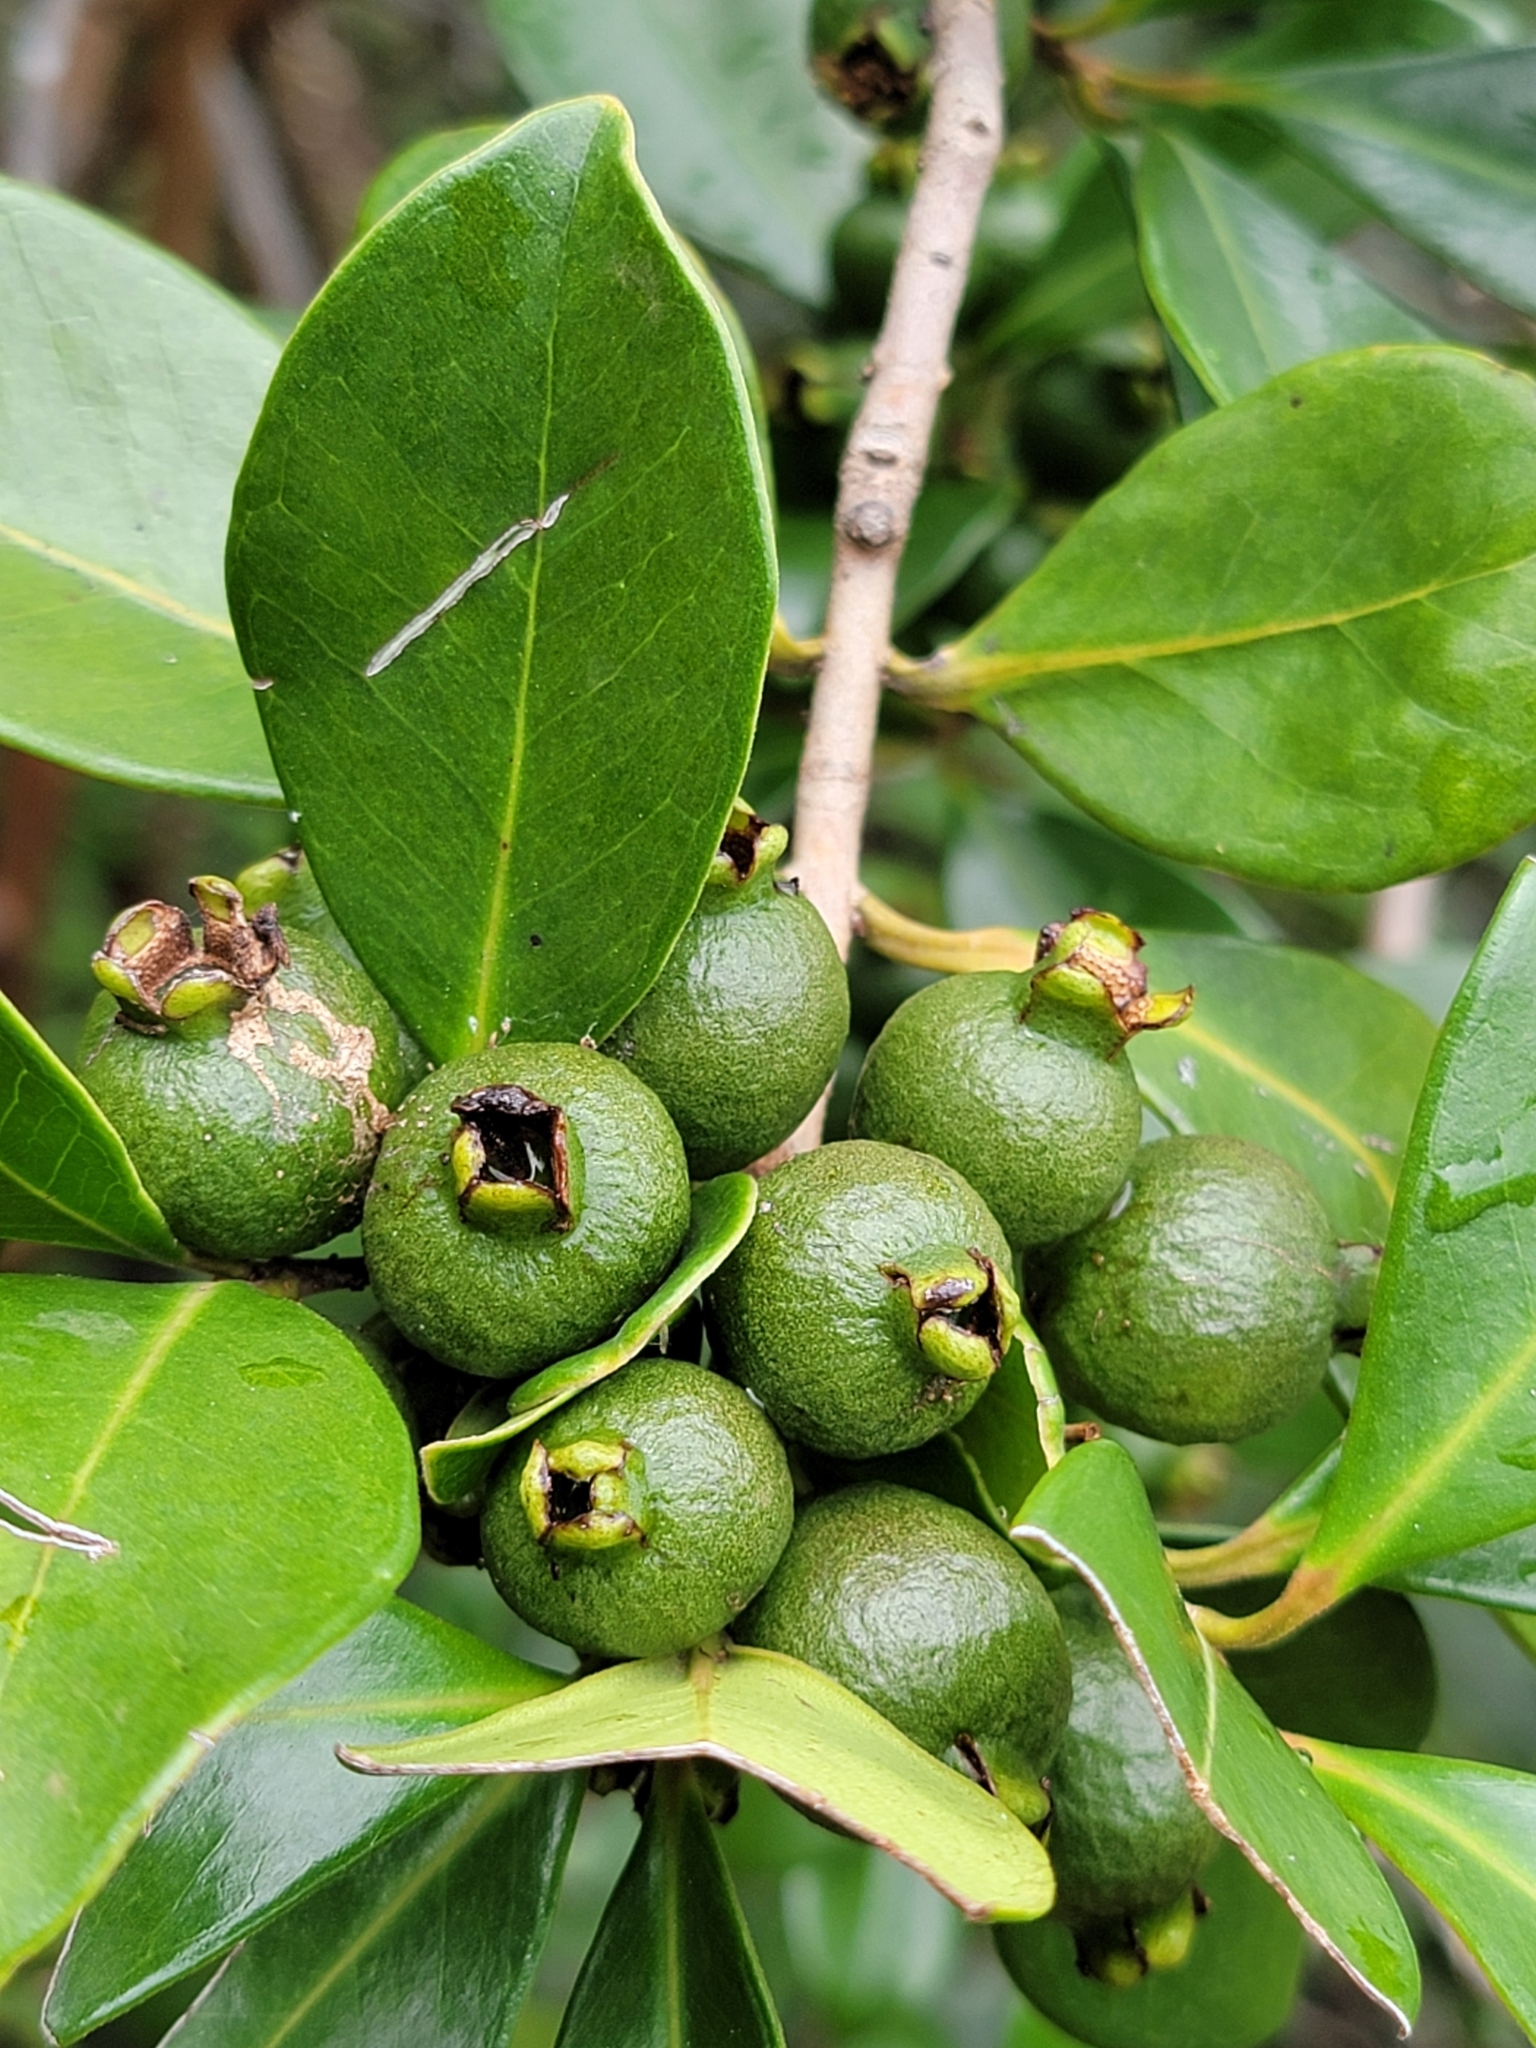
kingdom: Plantae
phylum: Tracheophyta
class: Magnoliopsida
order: Myrtales
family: Myrtaceae
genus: Psidium
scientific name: Psidium cattleianum
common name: Strawberry guava
